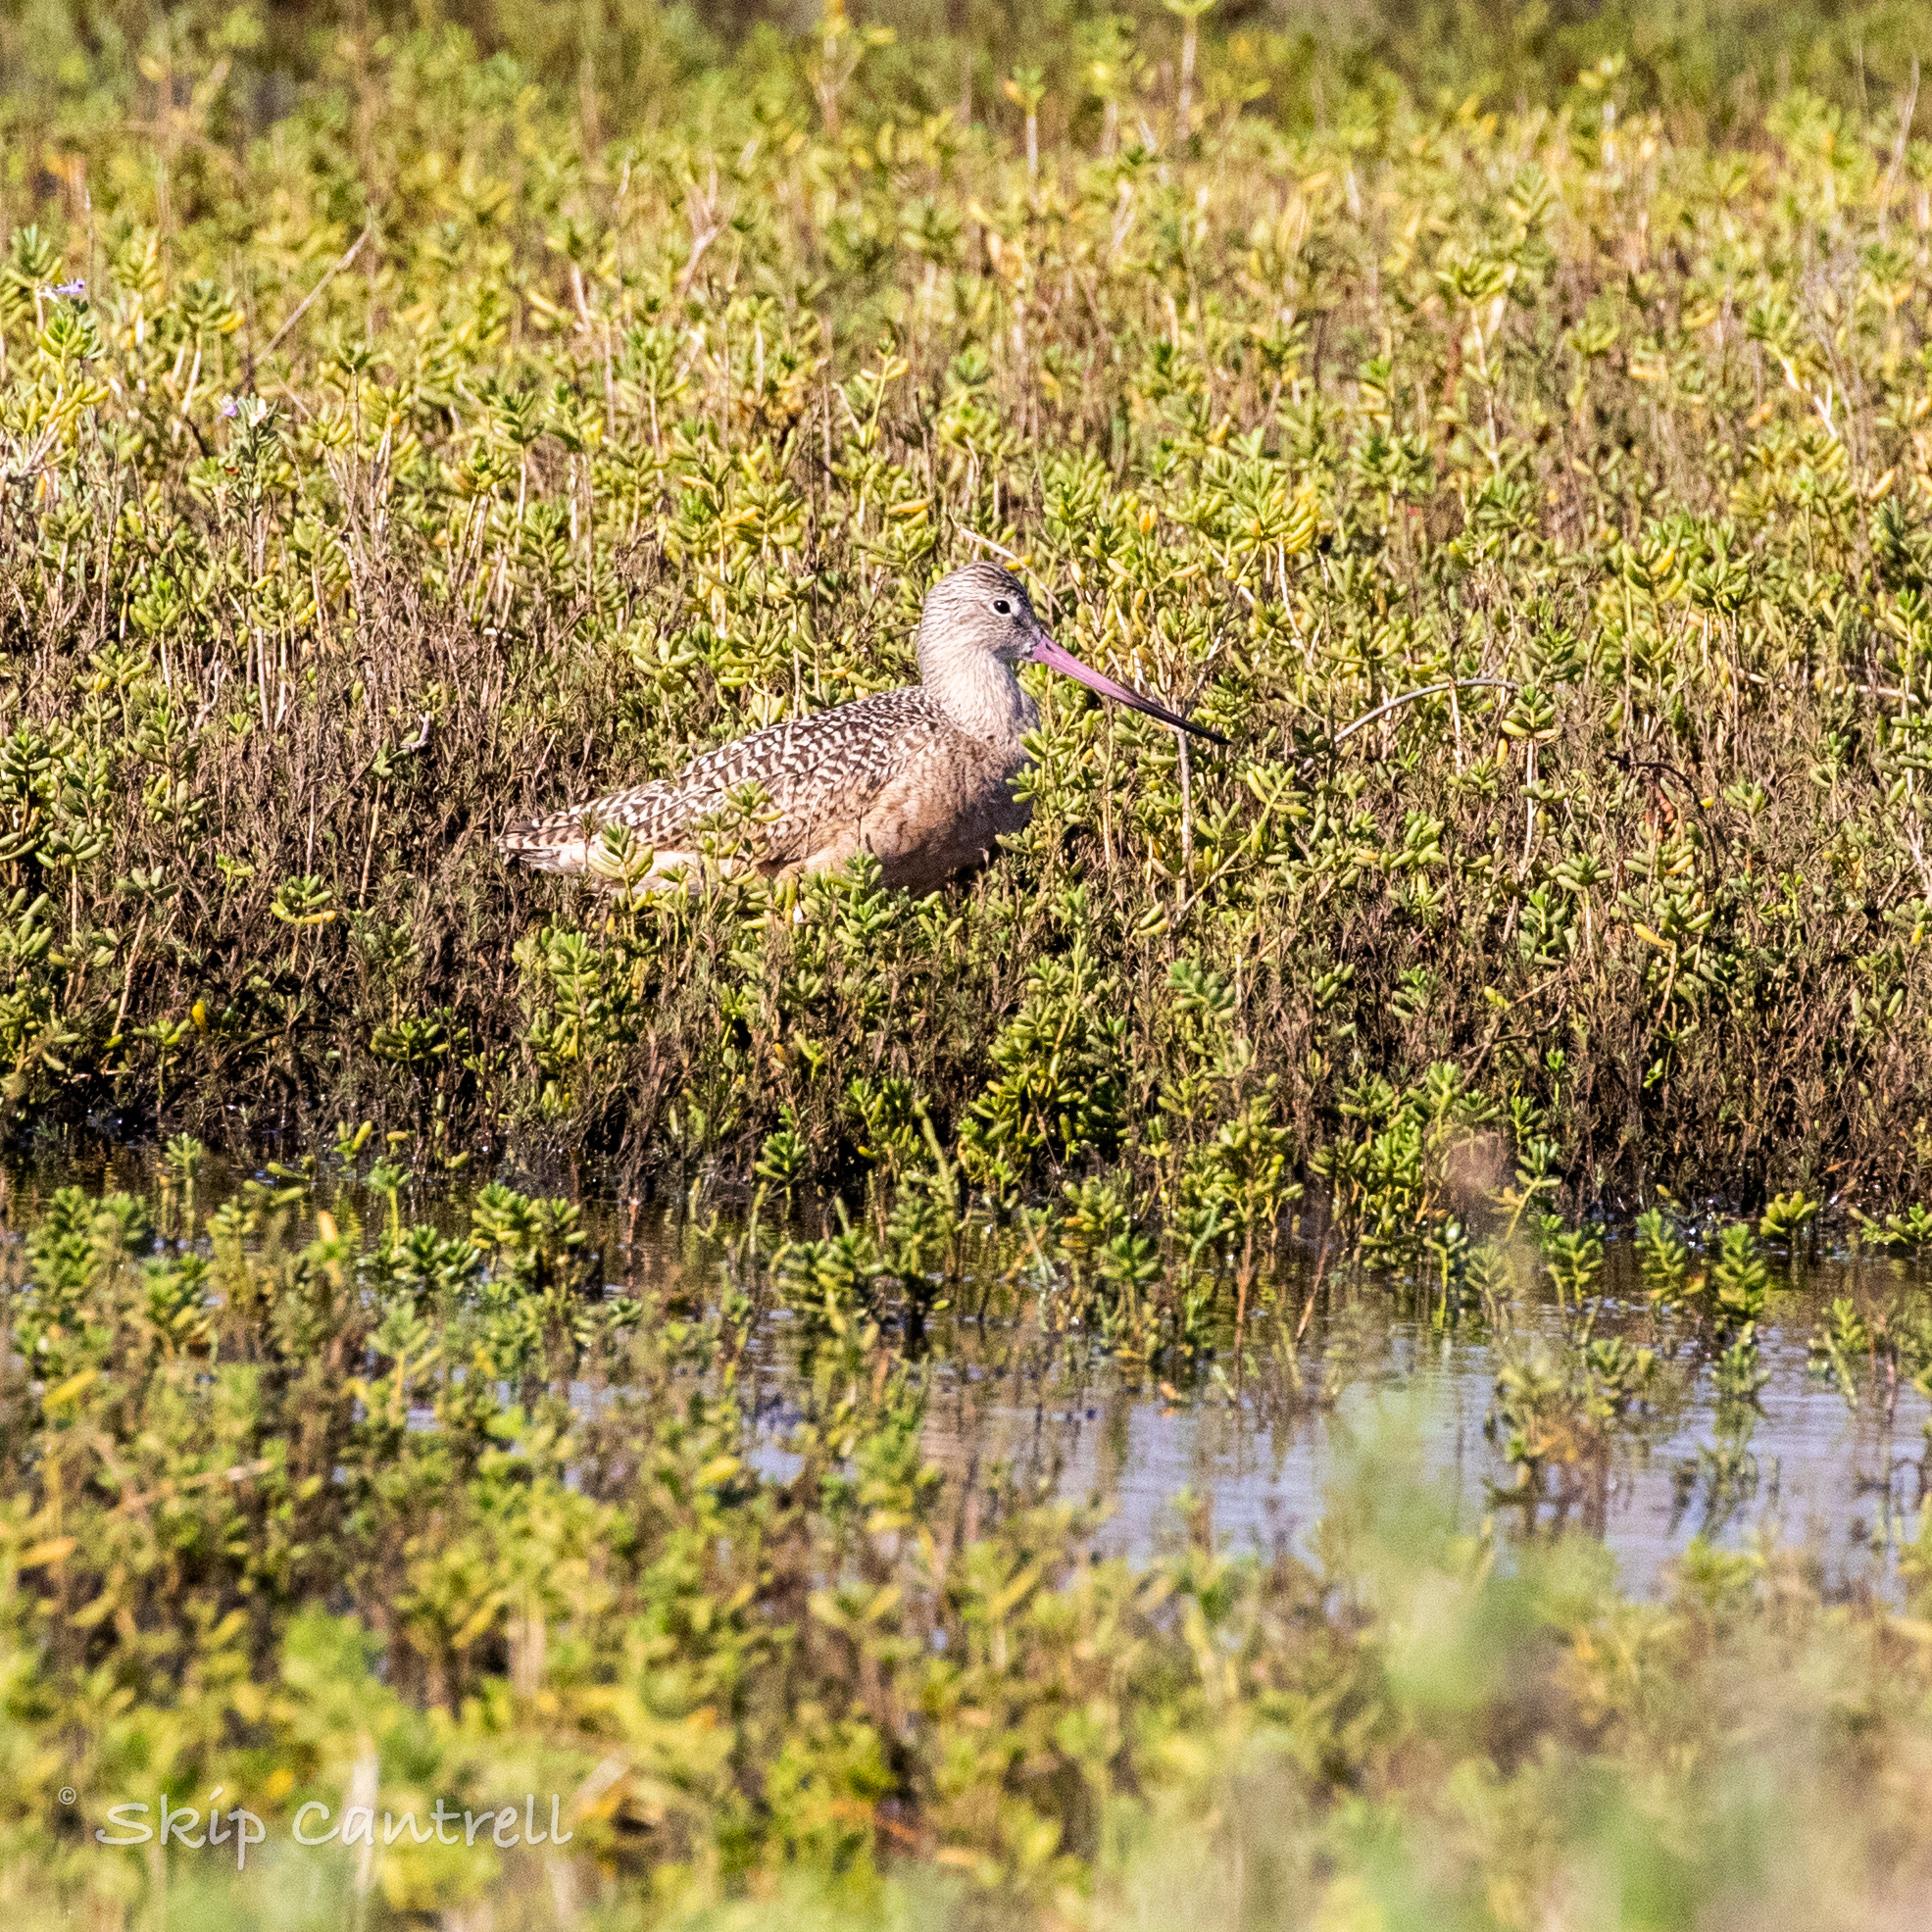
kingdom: Animalia
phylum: Chordata
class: Aves
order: Charadriiformes
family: Scolopacidae
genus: Limosa
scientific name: Limosa fedoa
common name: Marbled godwit
